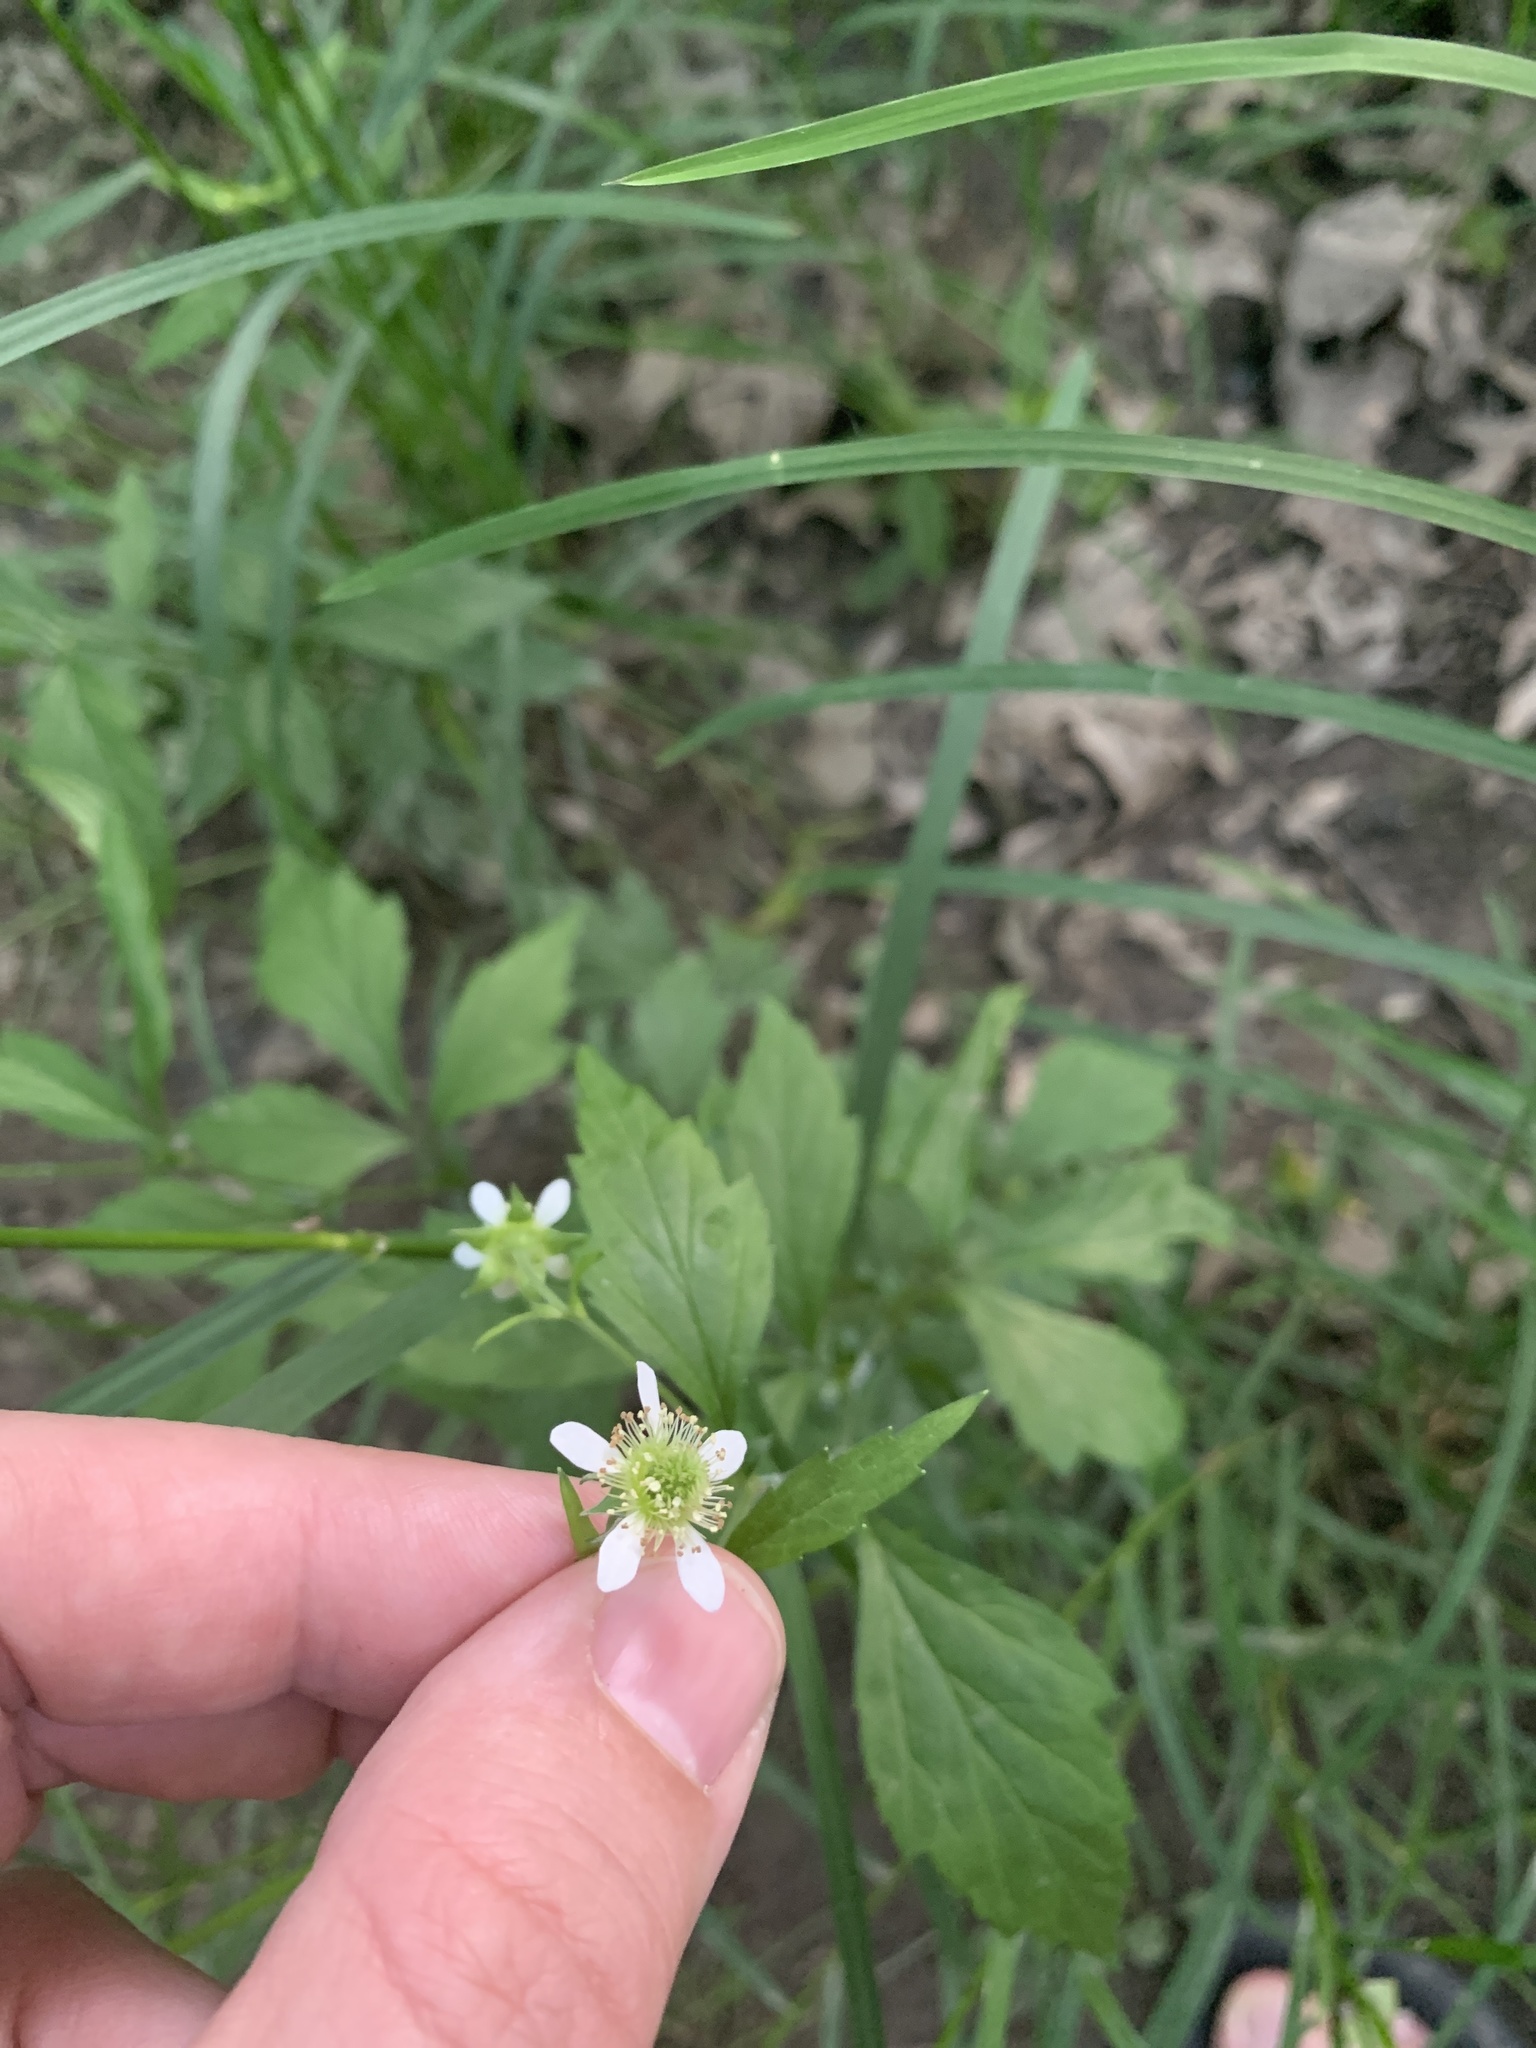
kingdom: Plantae
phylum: Tracheophyta
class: Magnoliopsida
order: Rosales
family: Rosaceae
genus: Geum
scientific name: Geum canadense
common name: White avens
